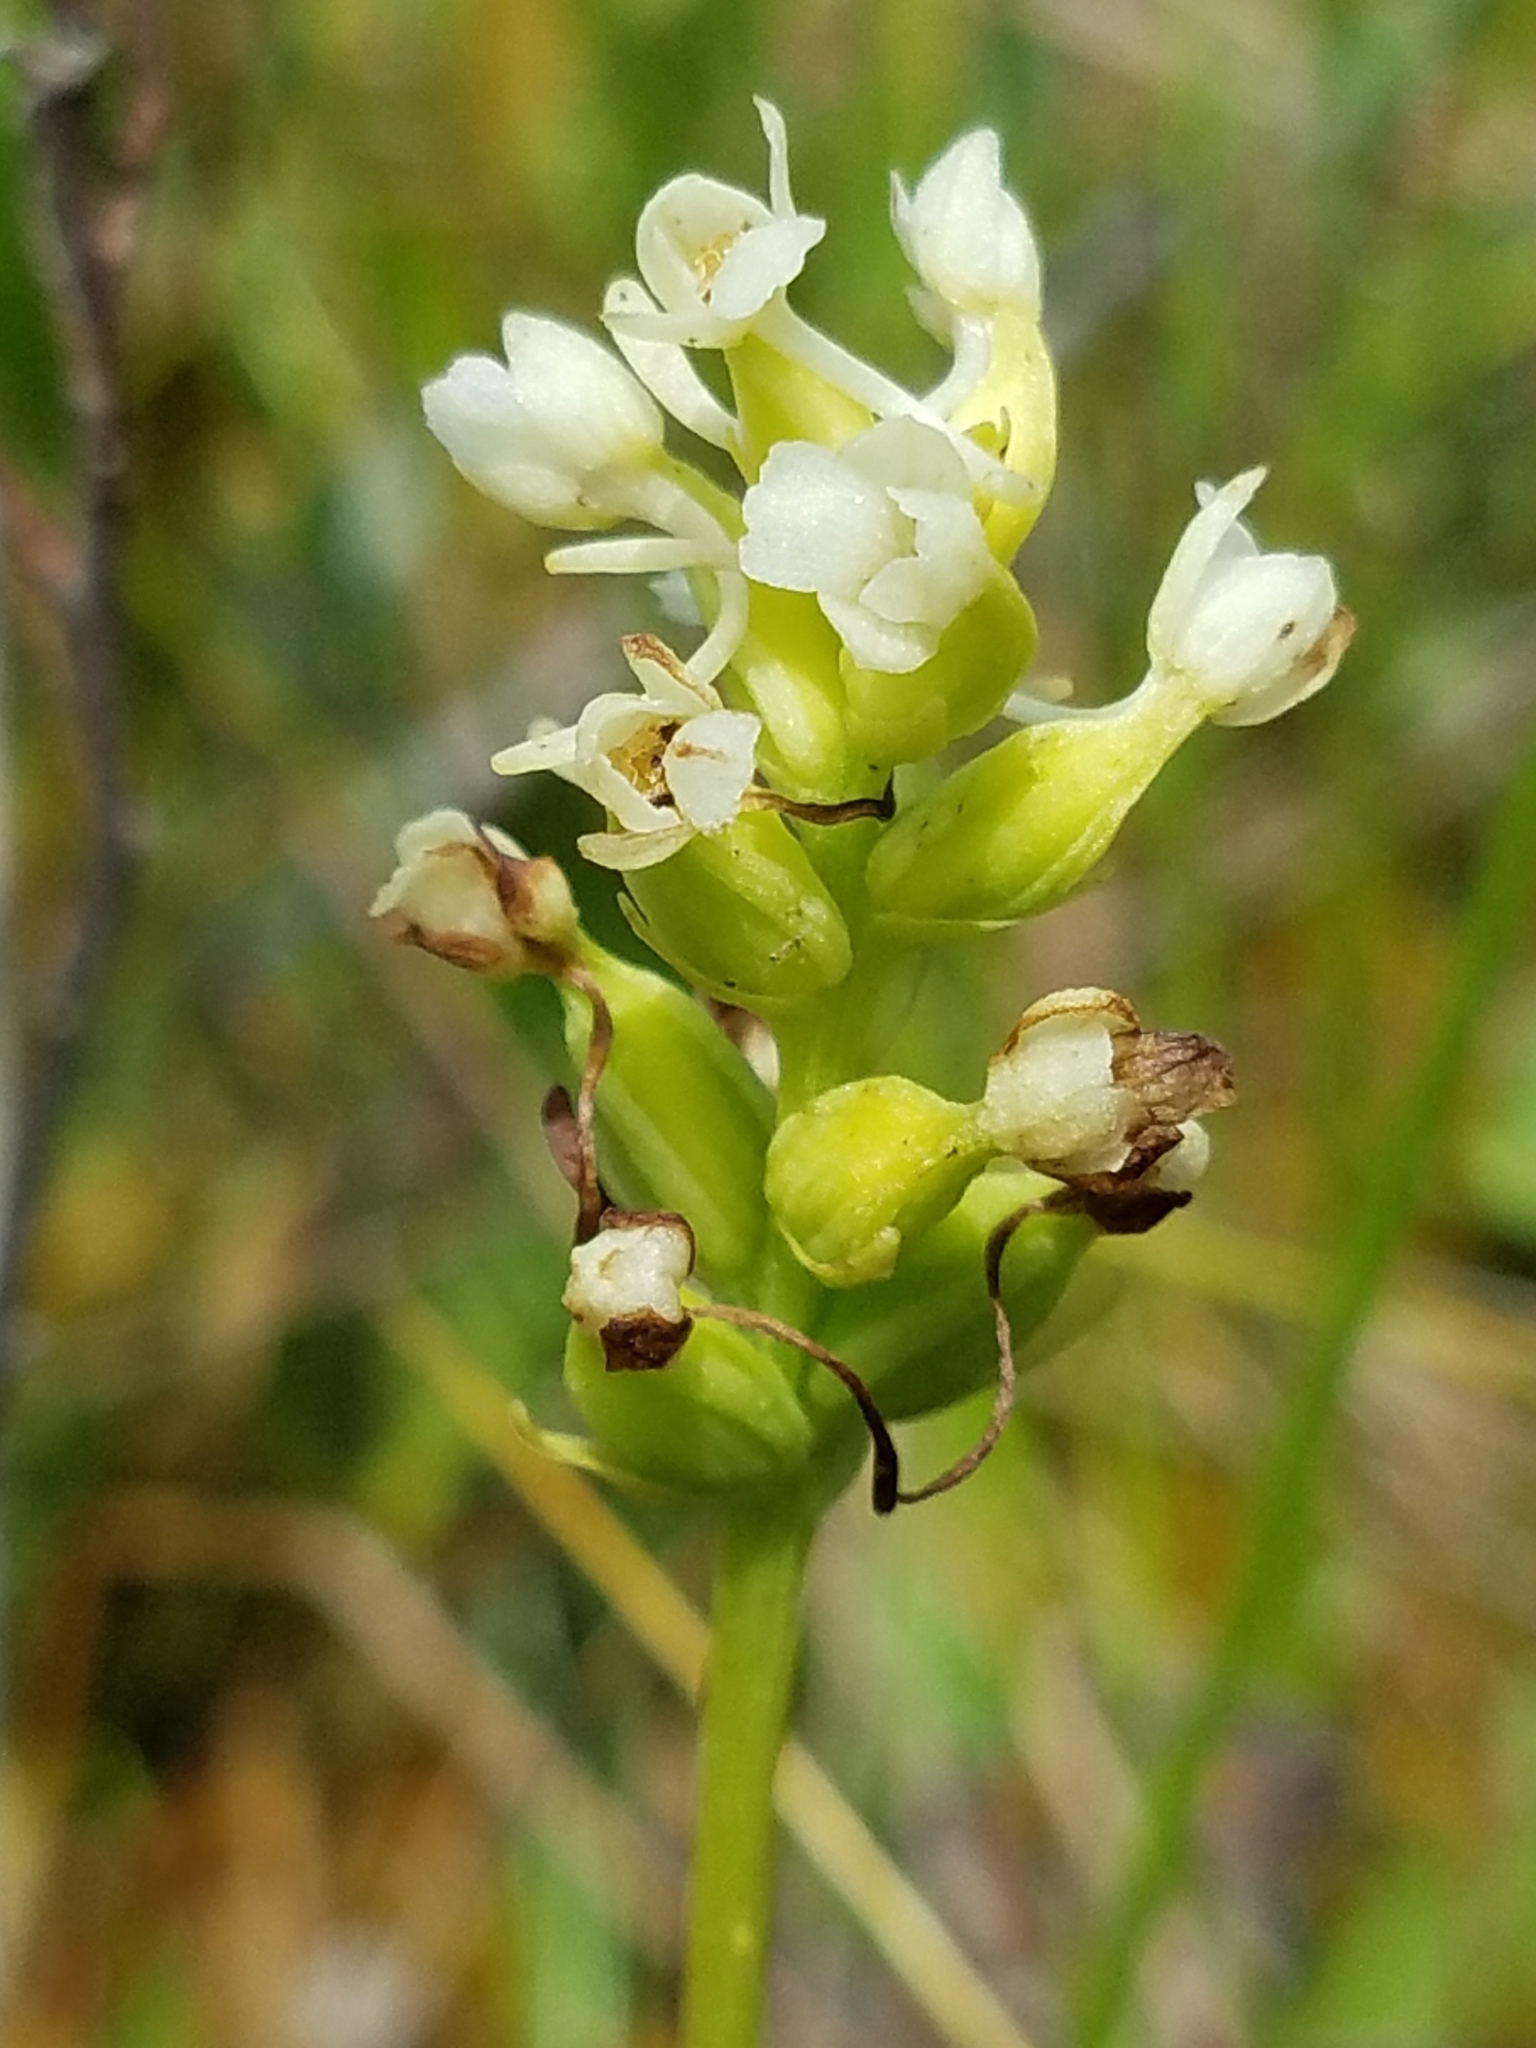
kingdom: Plantae
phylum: Tracheophyta
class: Liliopsida
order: Asparagales
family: Orchidaceae
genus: Platanthera
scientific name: Platanthera clavellata
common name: Club-spur orchid
